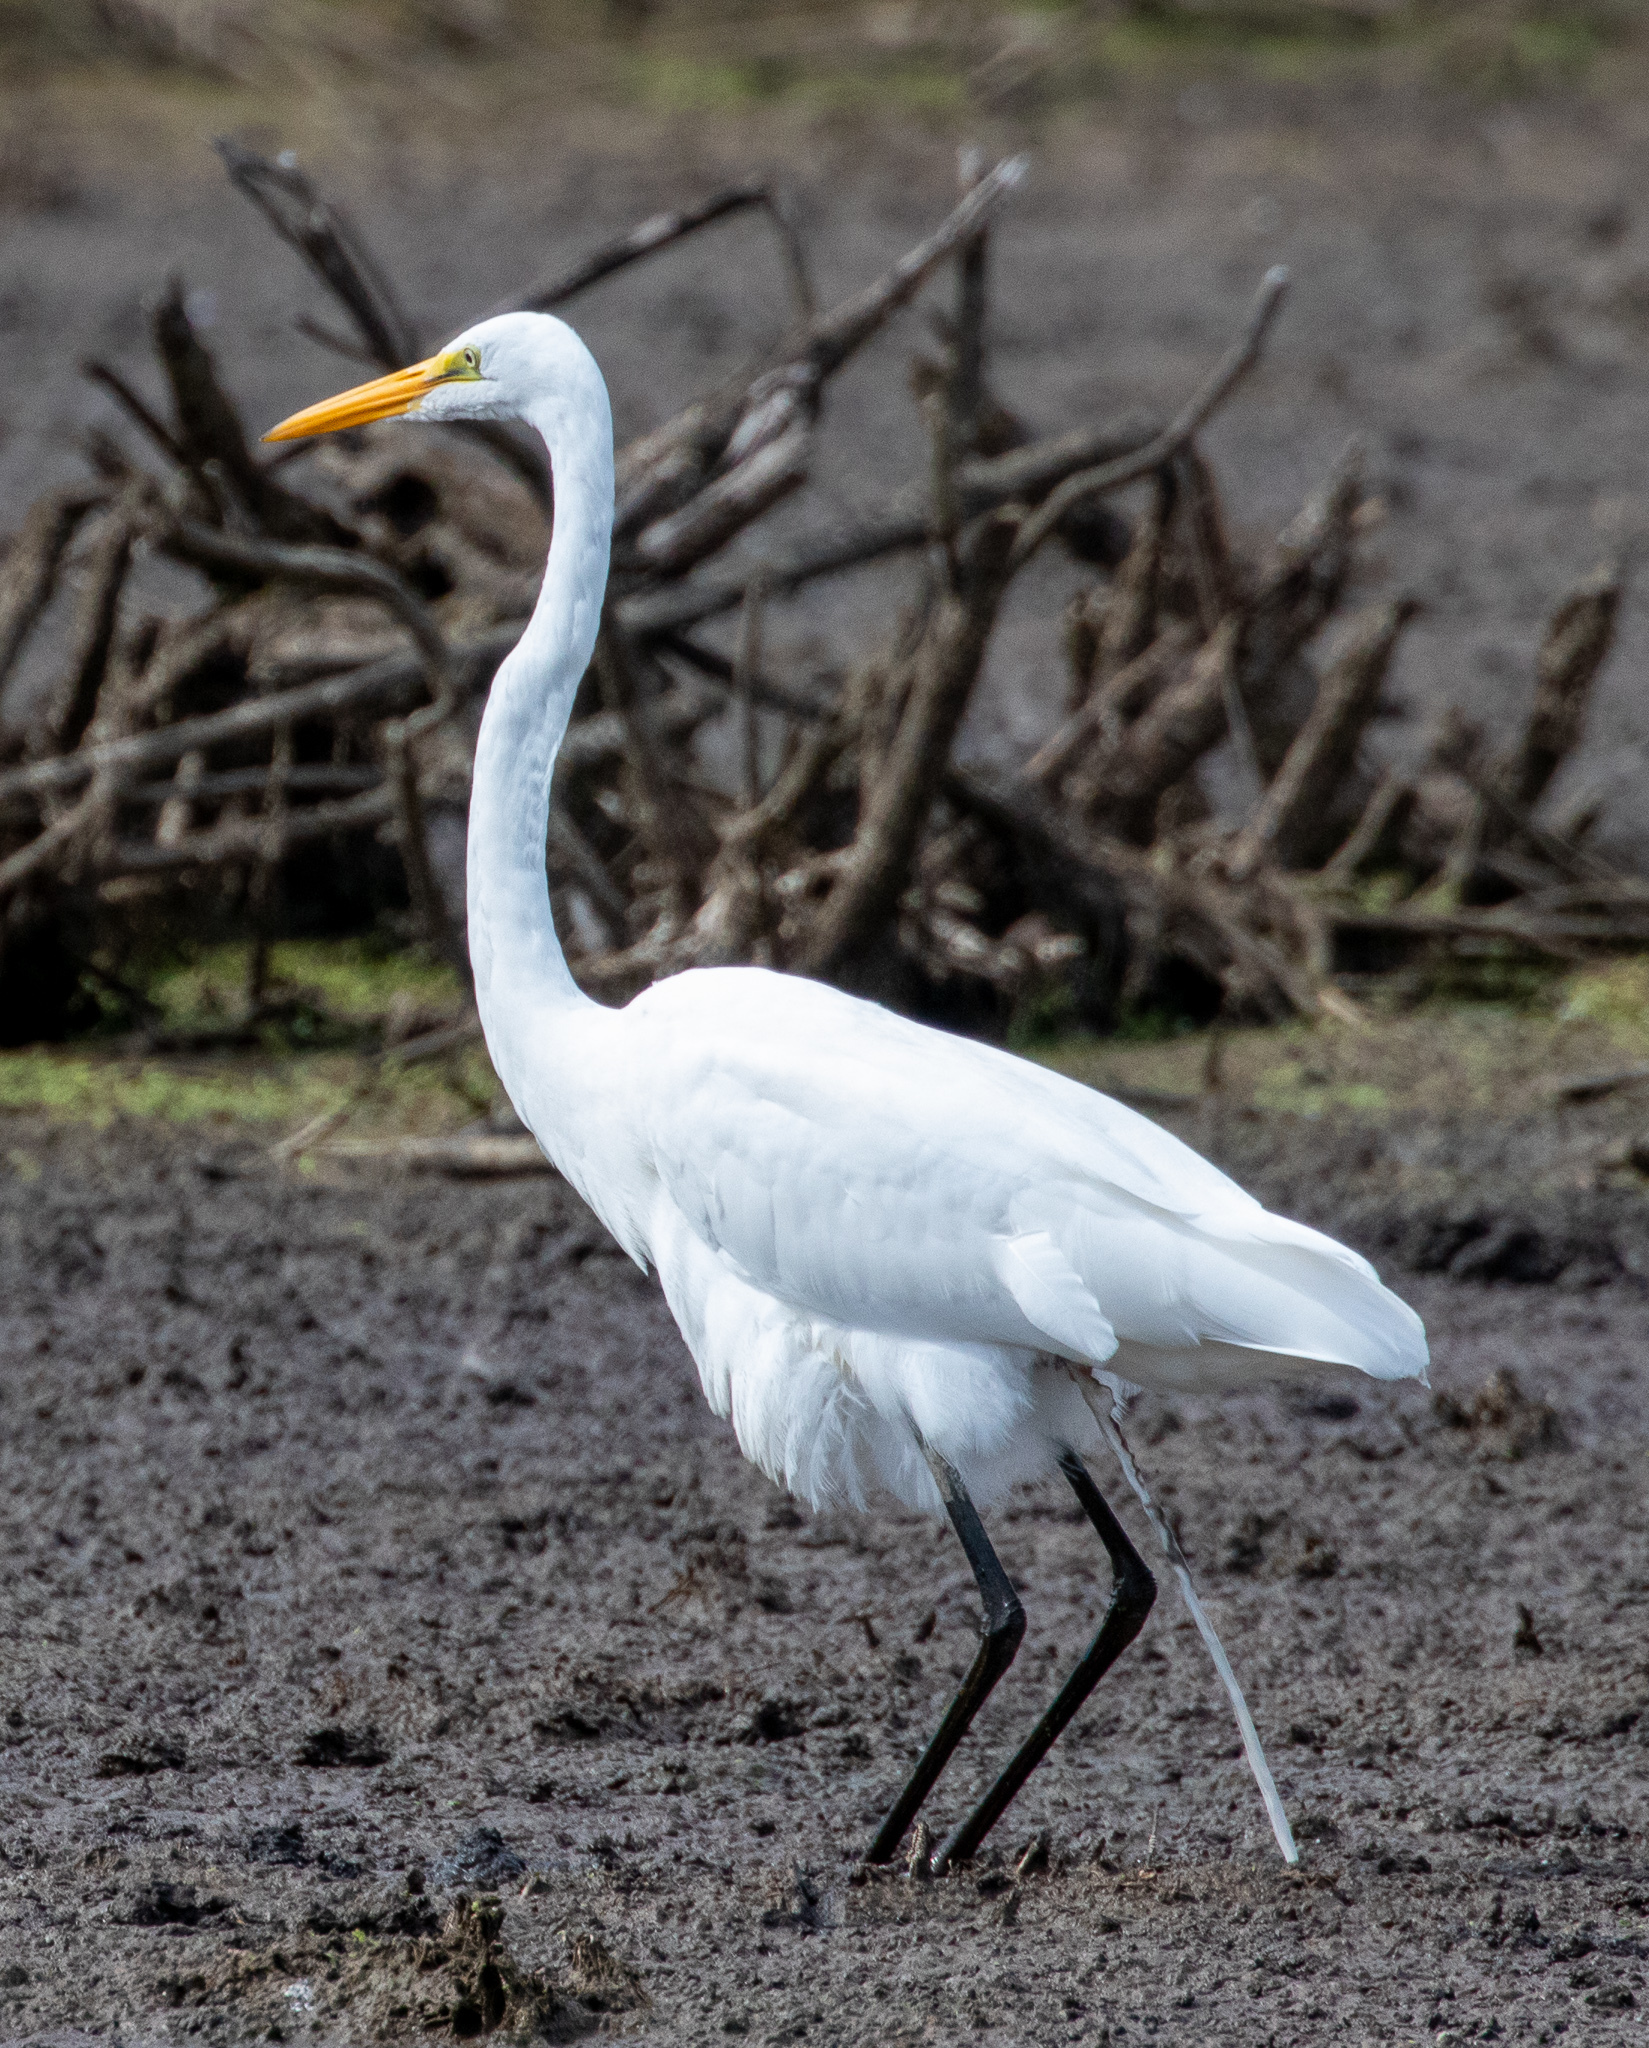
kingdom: Animalia
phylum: Chordata
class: Aves
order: Pelecaniformes
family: Ardeidae
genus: Ardea
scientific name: Ardea alba
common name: Great egret
